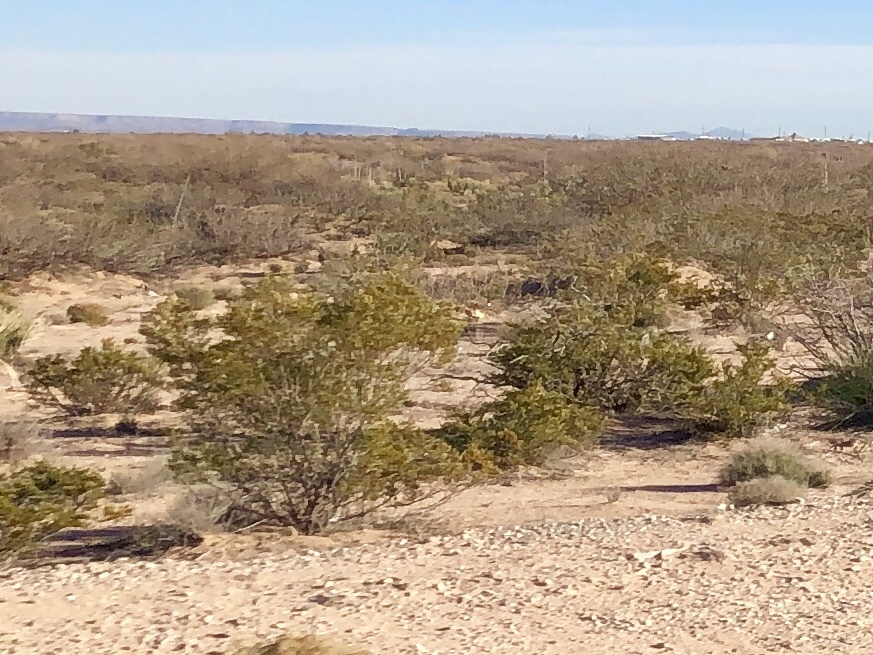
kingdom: Plantae
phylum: Tracheophyta
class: Magnoliopsida
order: Zygophyllales
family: Zygophyllaceae
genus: Larrea
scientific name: Larrea tridentata
